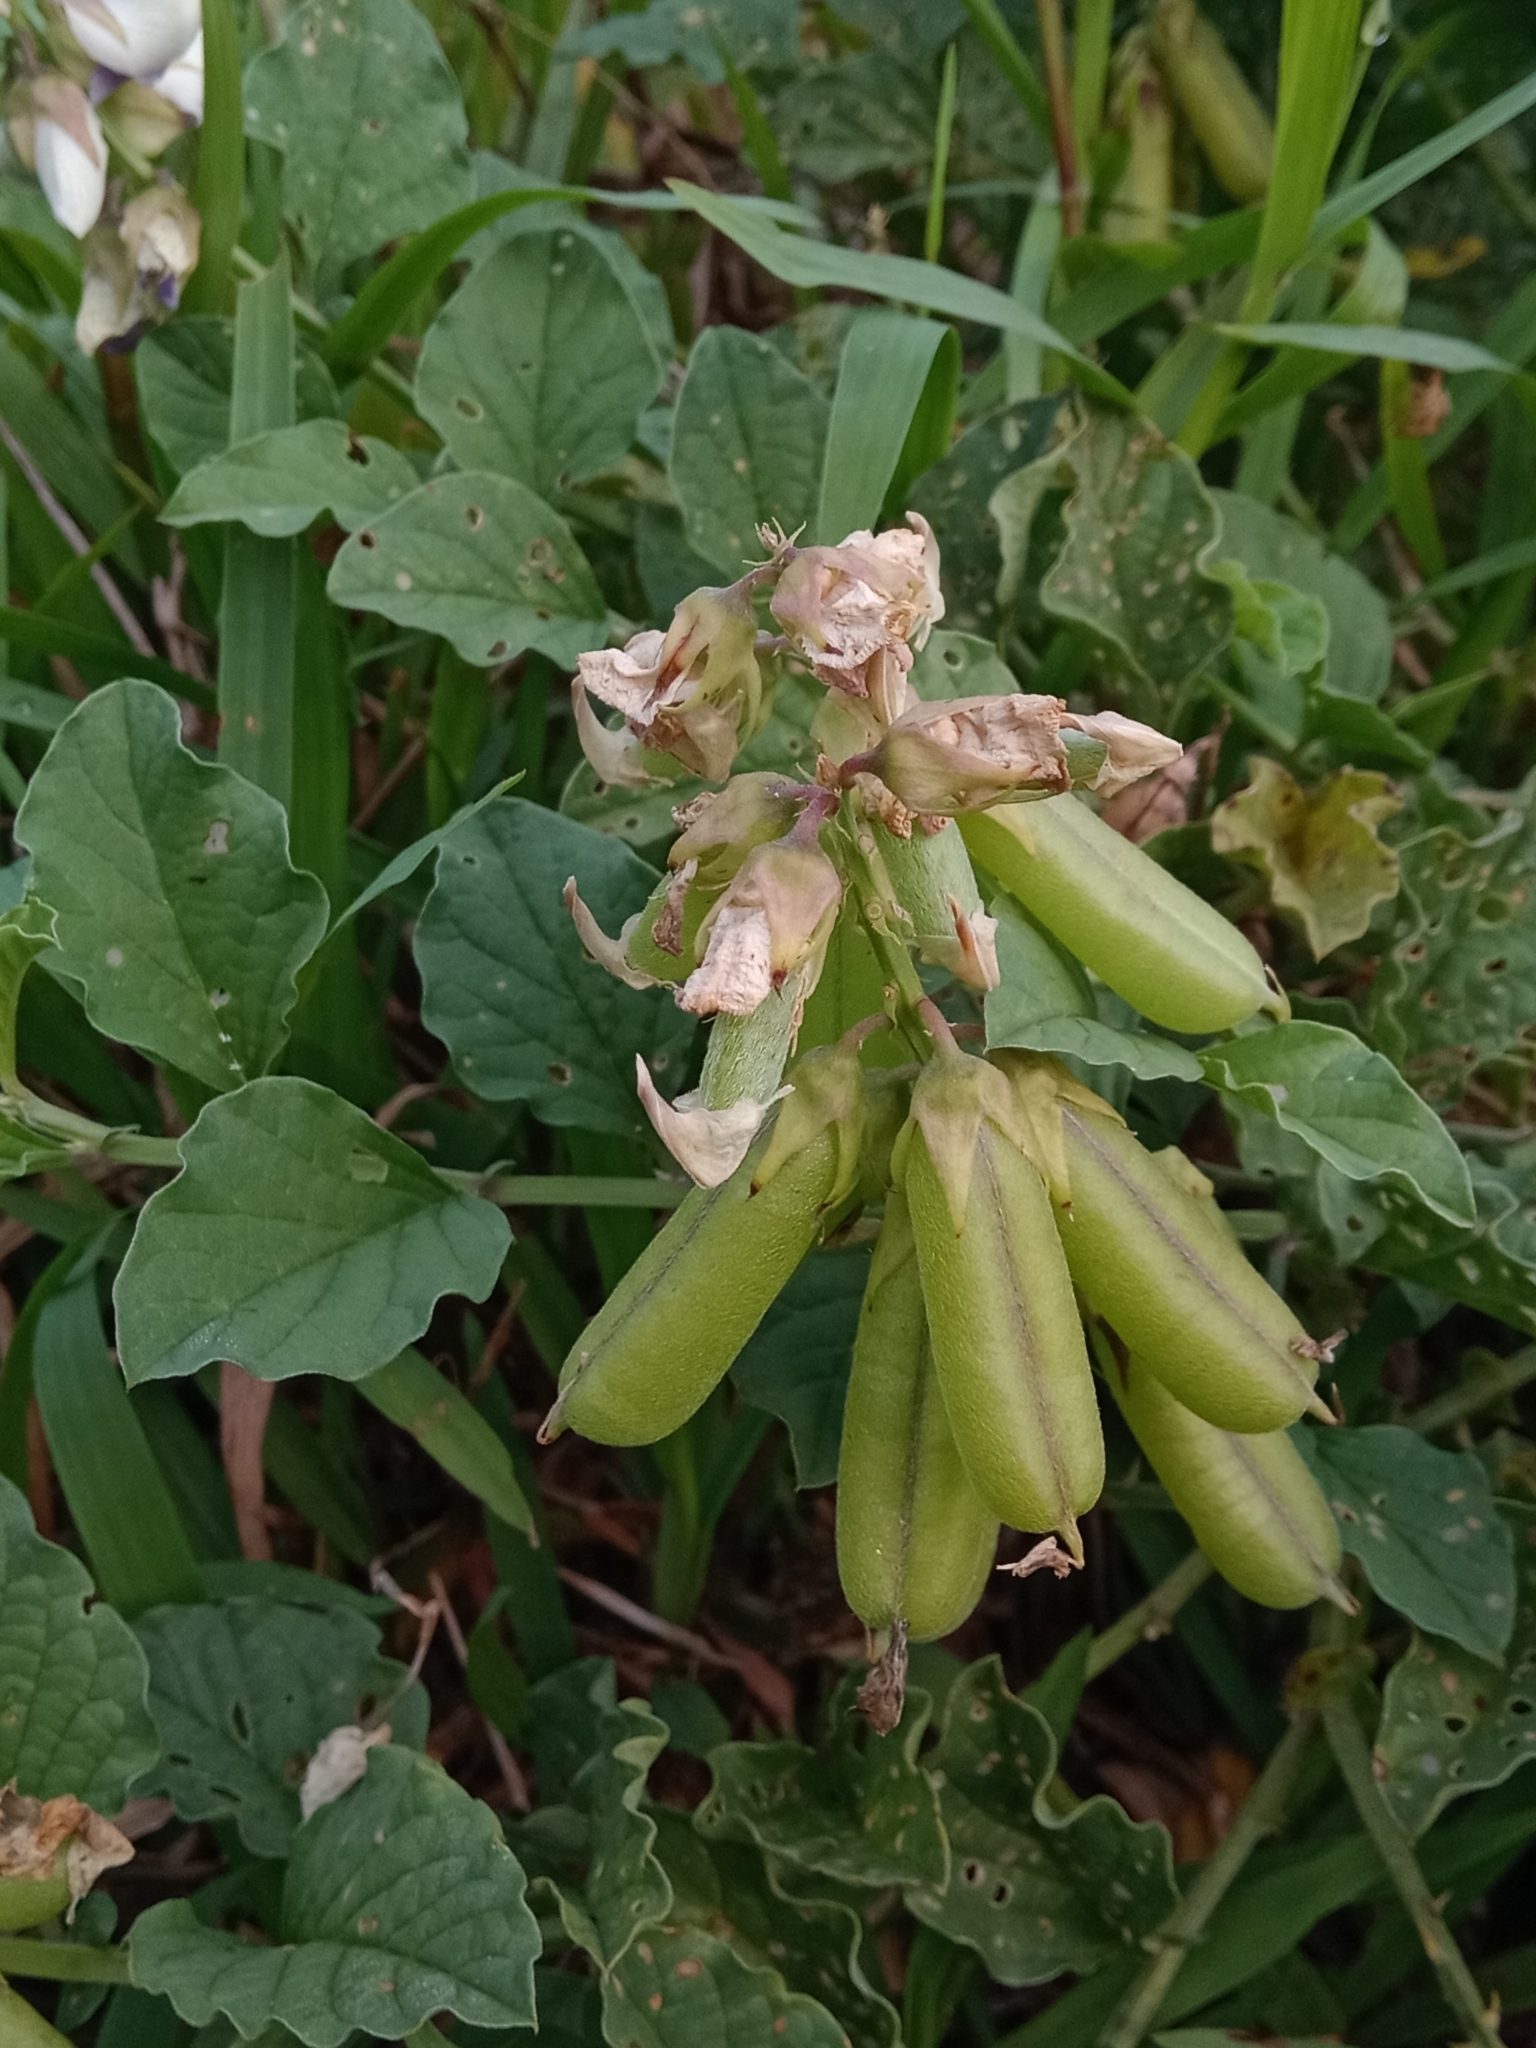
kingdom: Plantae
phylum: Tracheophyta
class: Magnoliopsida
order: Fabales
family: Fabaceae
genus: Crotalaria
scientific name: Crotalaria verrucosa
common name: Blue rattlesnake
